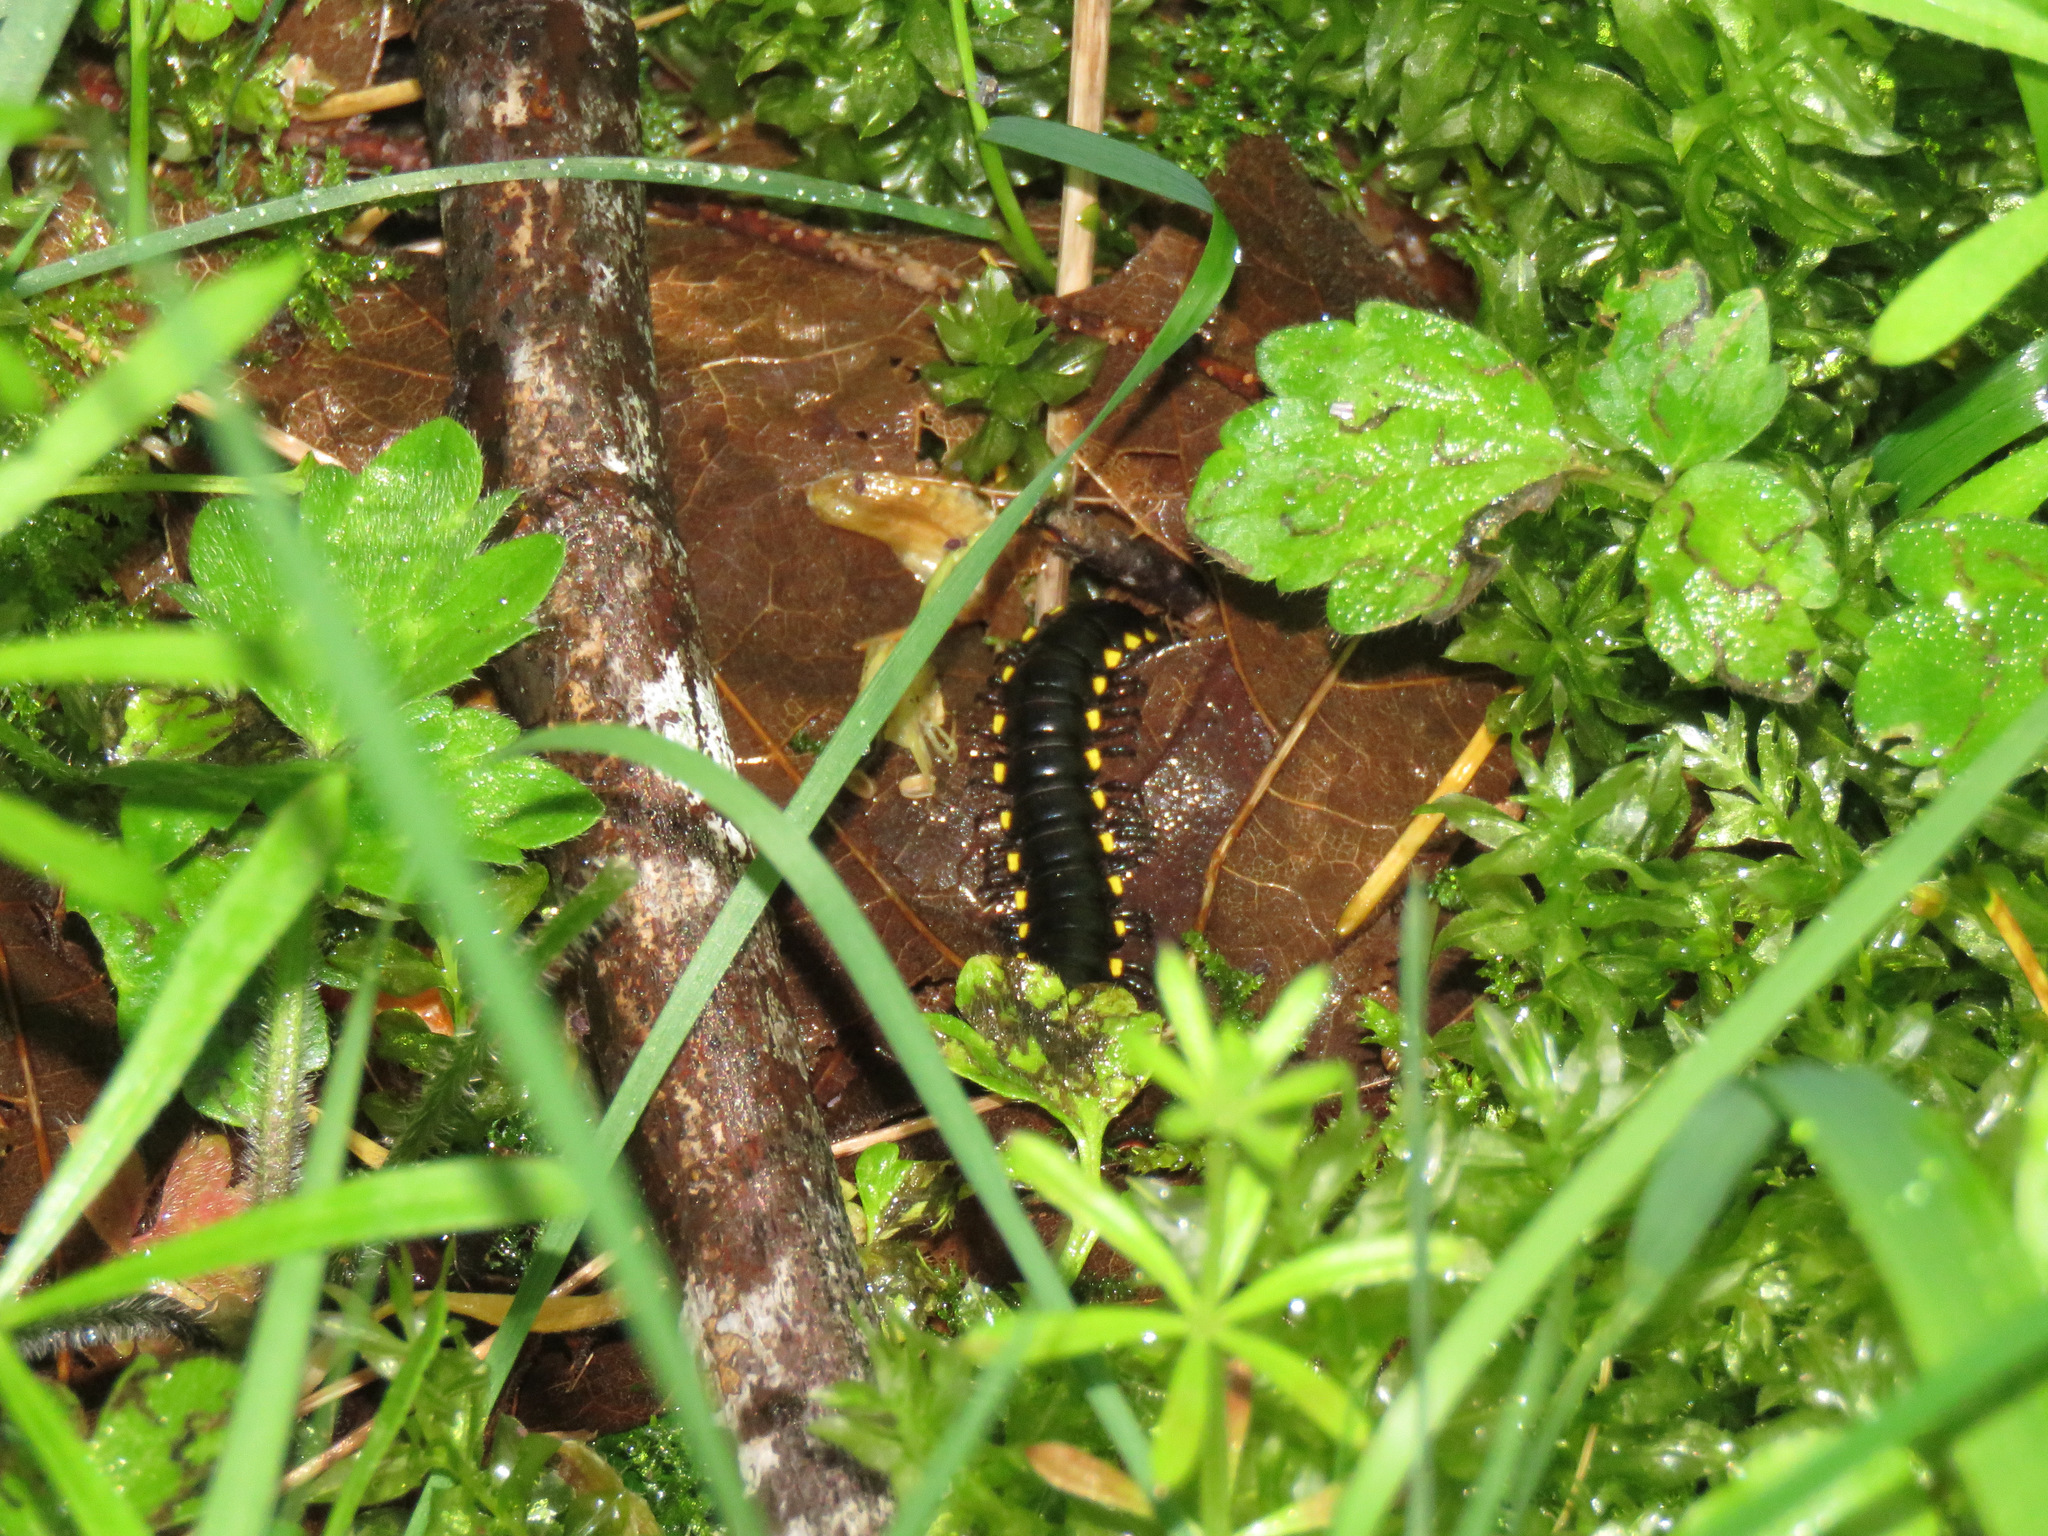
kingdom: Animalia
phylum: Arthropoda
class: Diplopoda
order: Polydesmida
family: Xystodesmidae
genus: Harpaphe
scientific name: Harpaphe haydeniana
